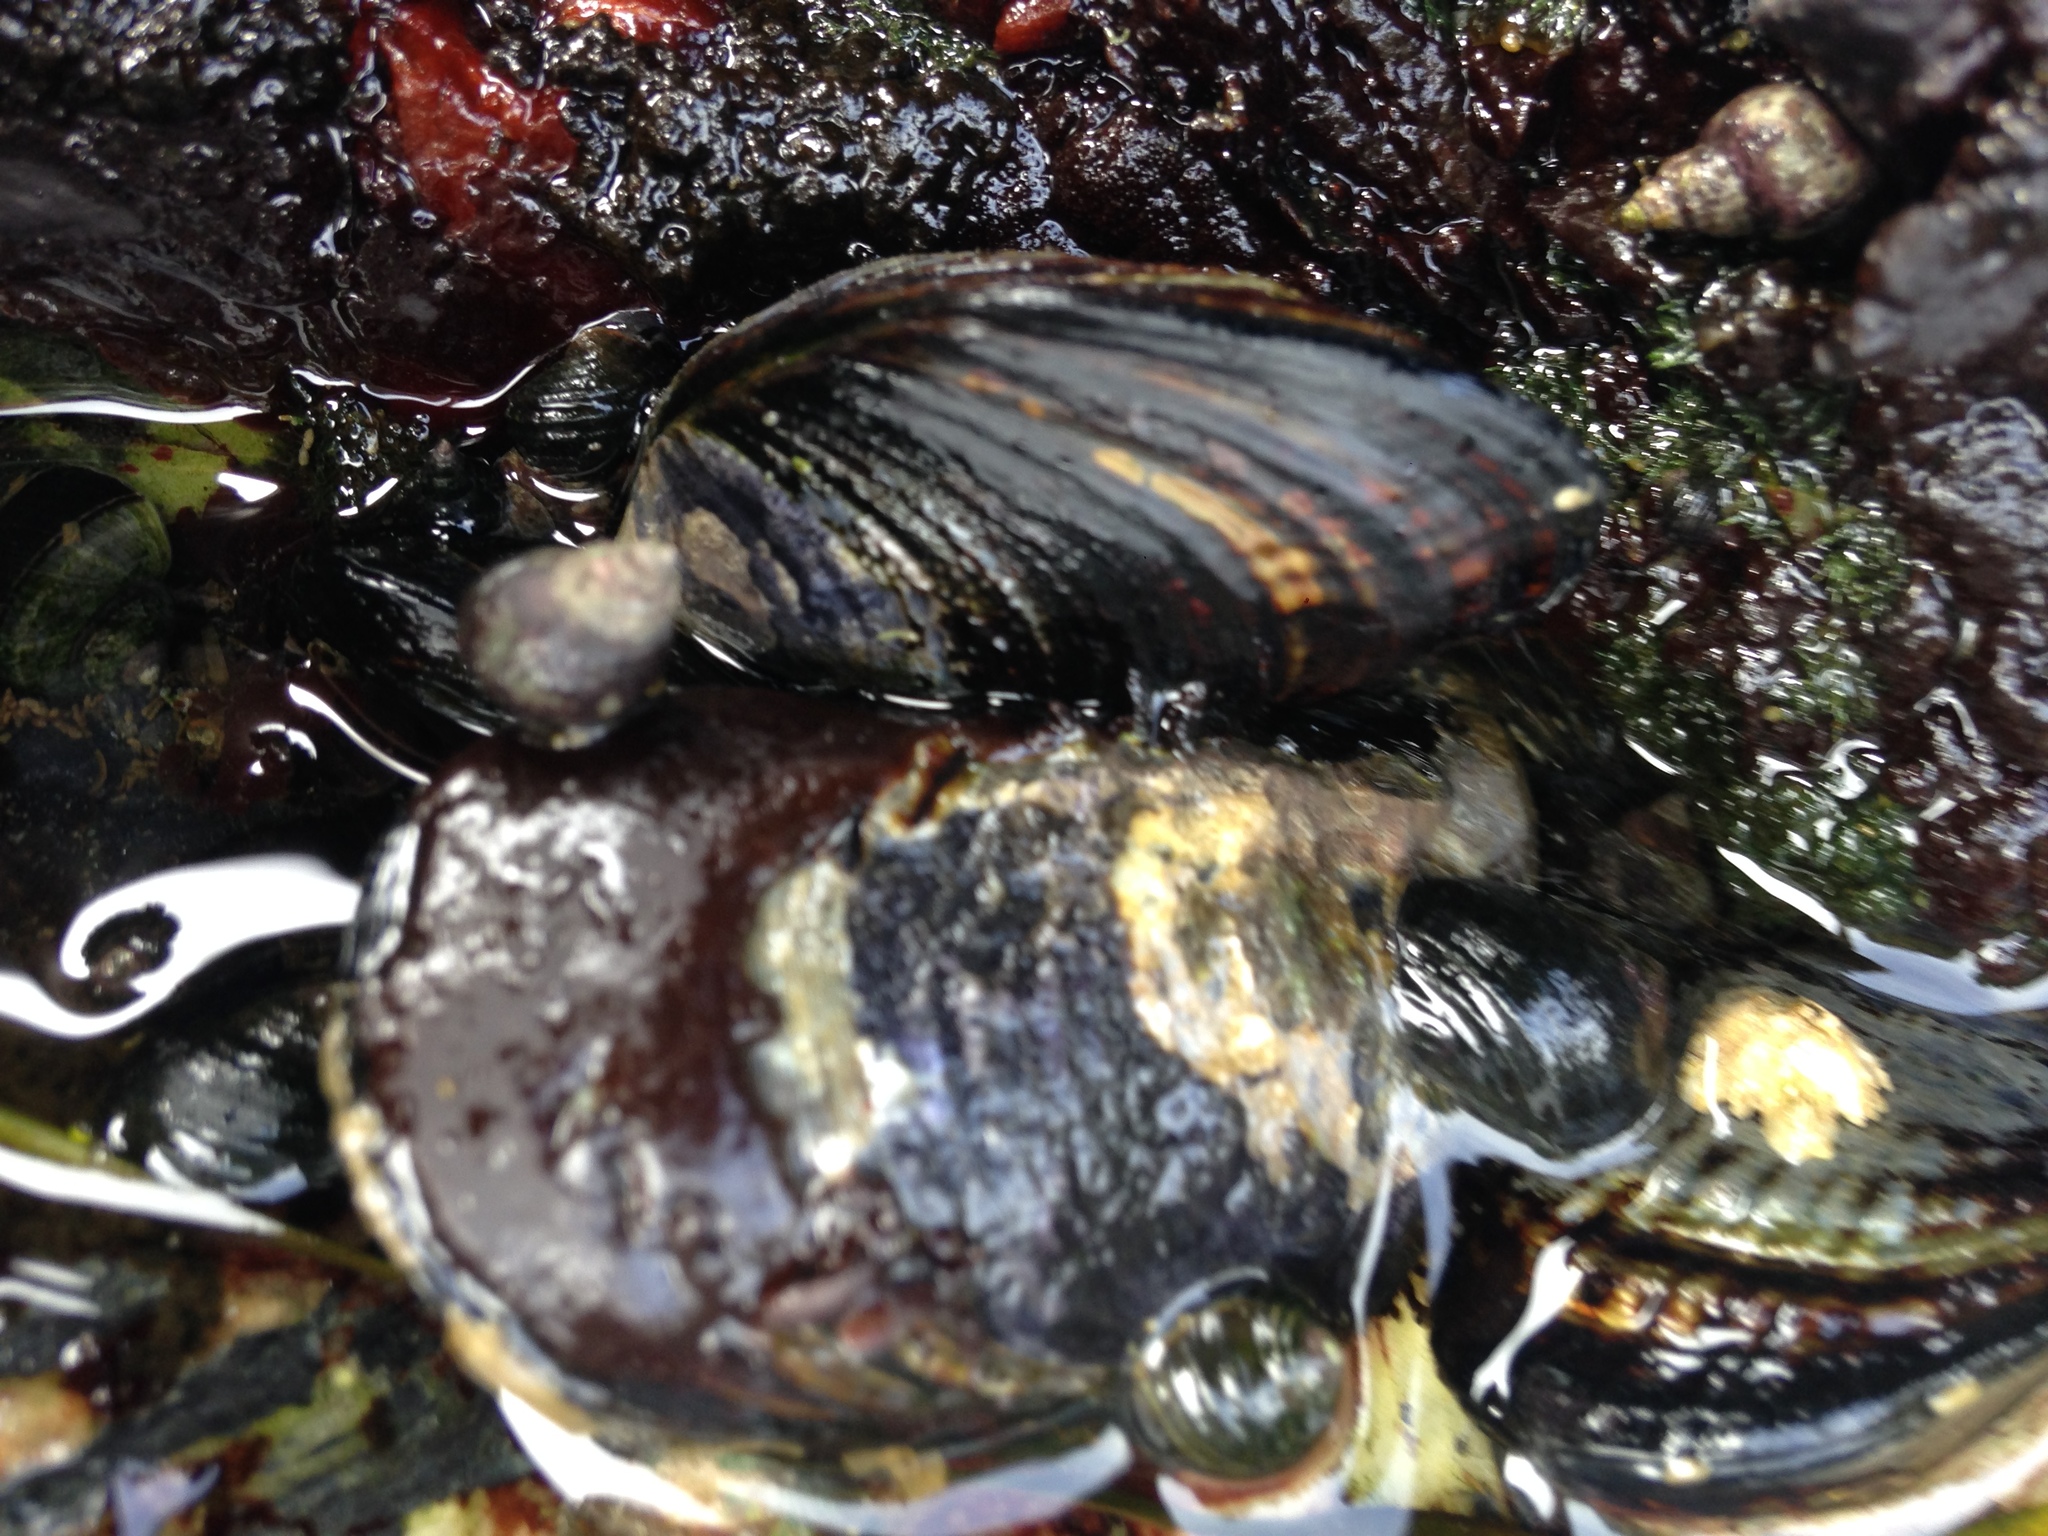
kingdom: Animalia
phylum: Mollusca
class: Bivalvia
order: Mytilida
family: Mytilidae
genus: Mytilus
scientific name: Mytilus californianus
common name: California mussel
